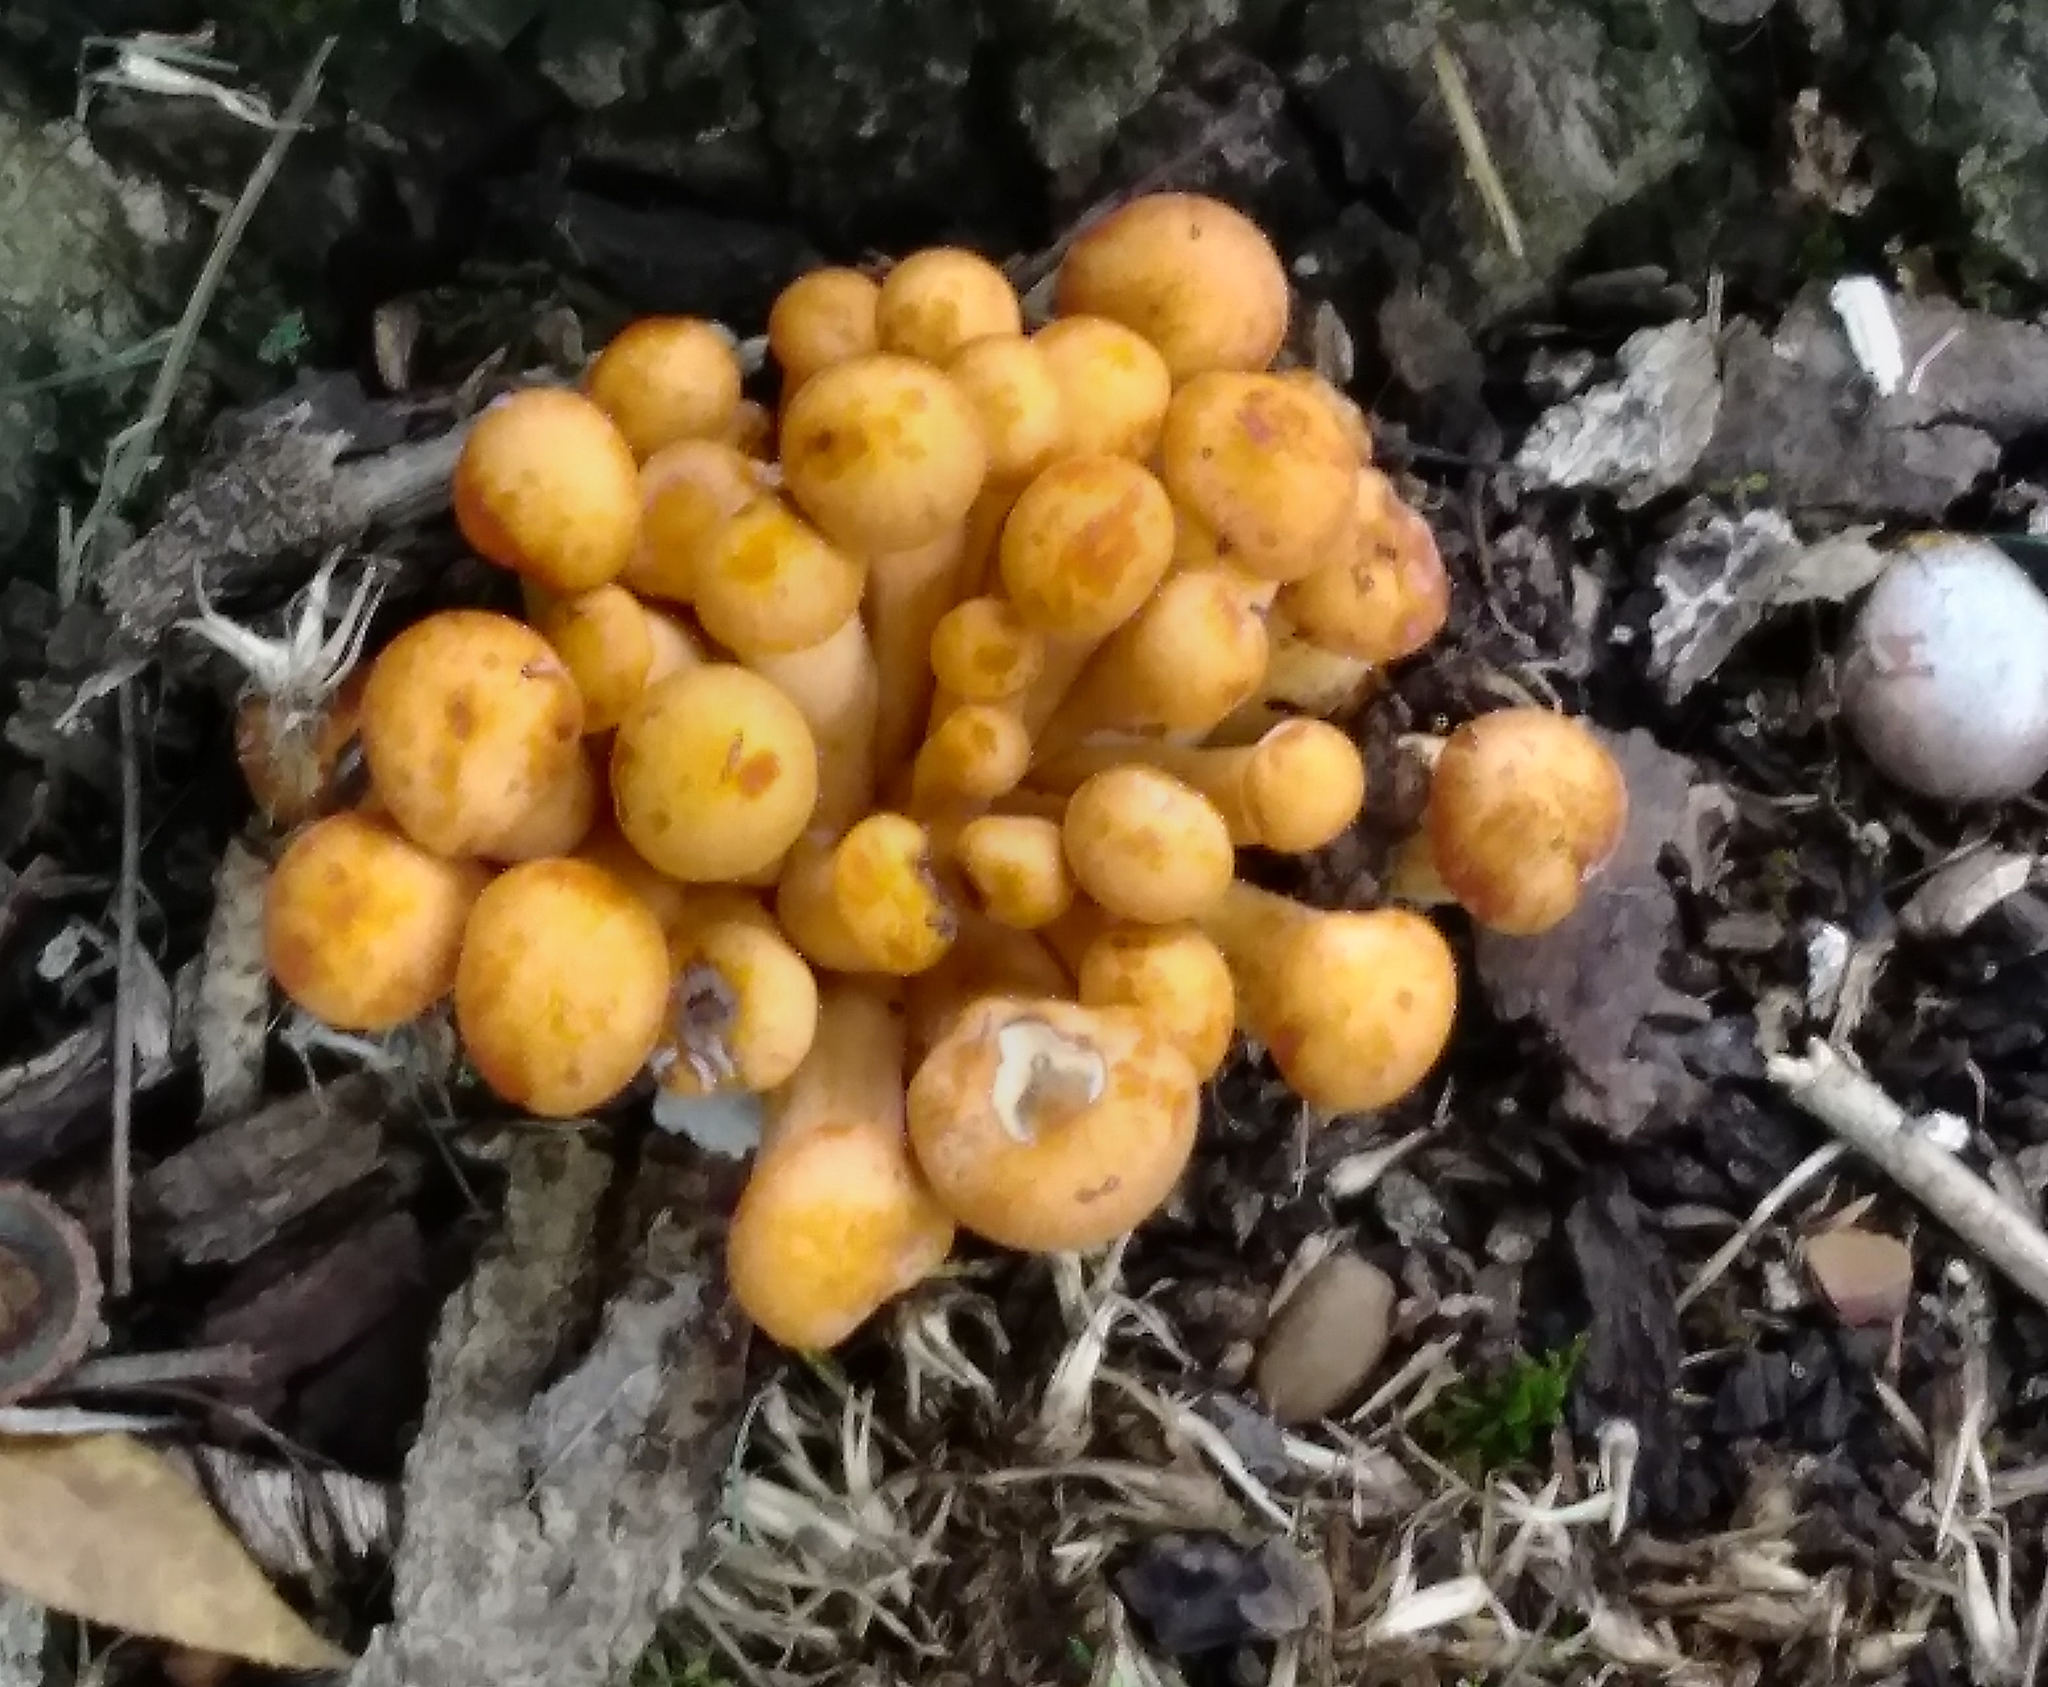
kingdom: Fungi
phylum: Basidiomycota
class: Agaricomycetes
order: Agaricales
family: Omphalotaceae
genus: Omphalotus
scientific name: Omphalotus illudens
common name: Jack o lantern
